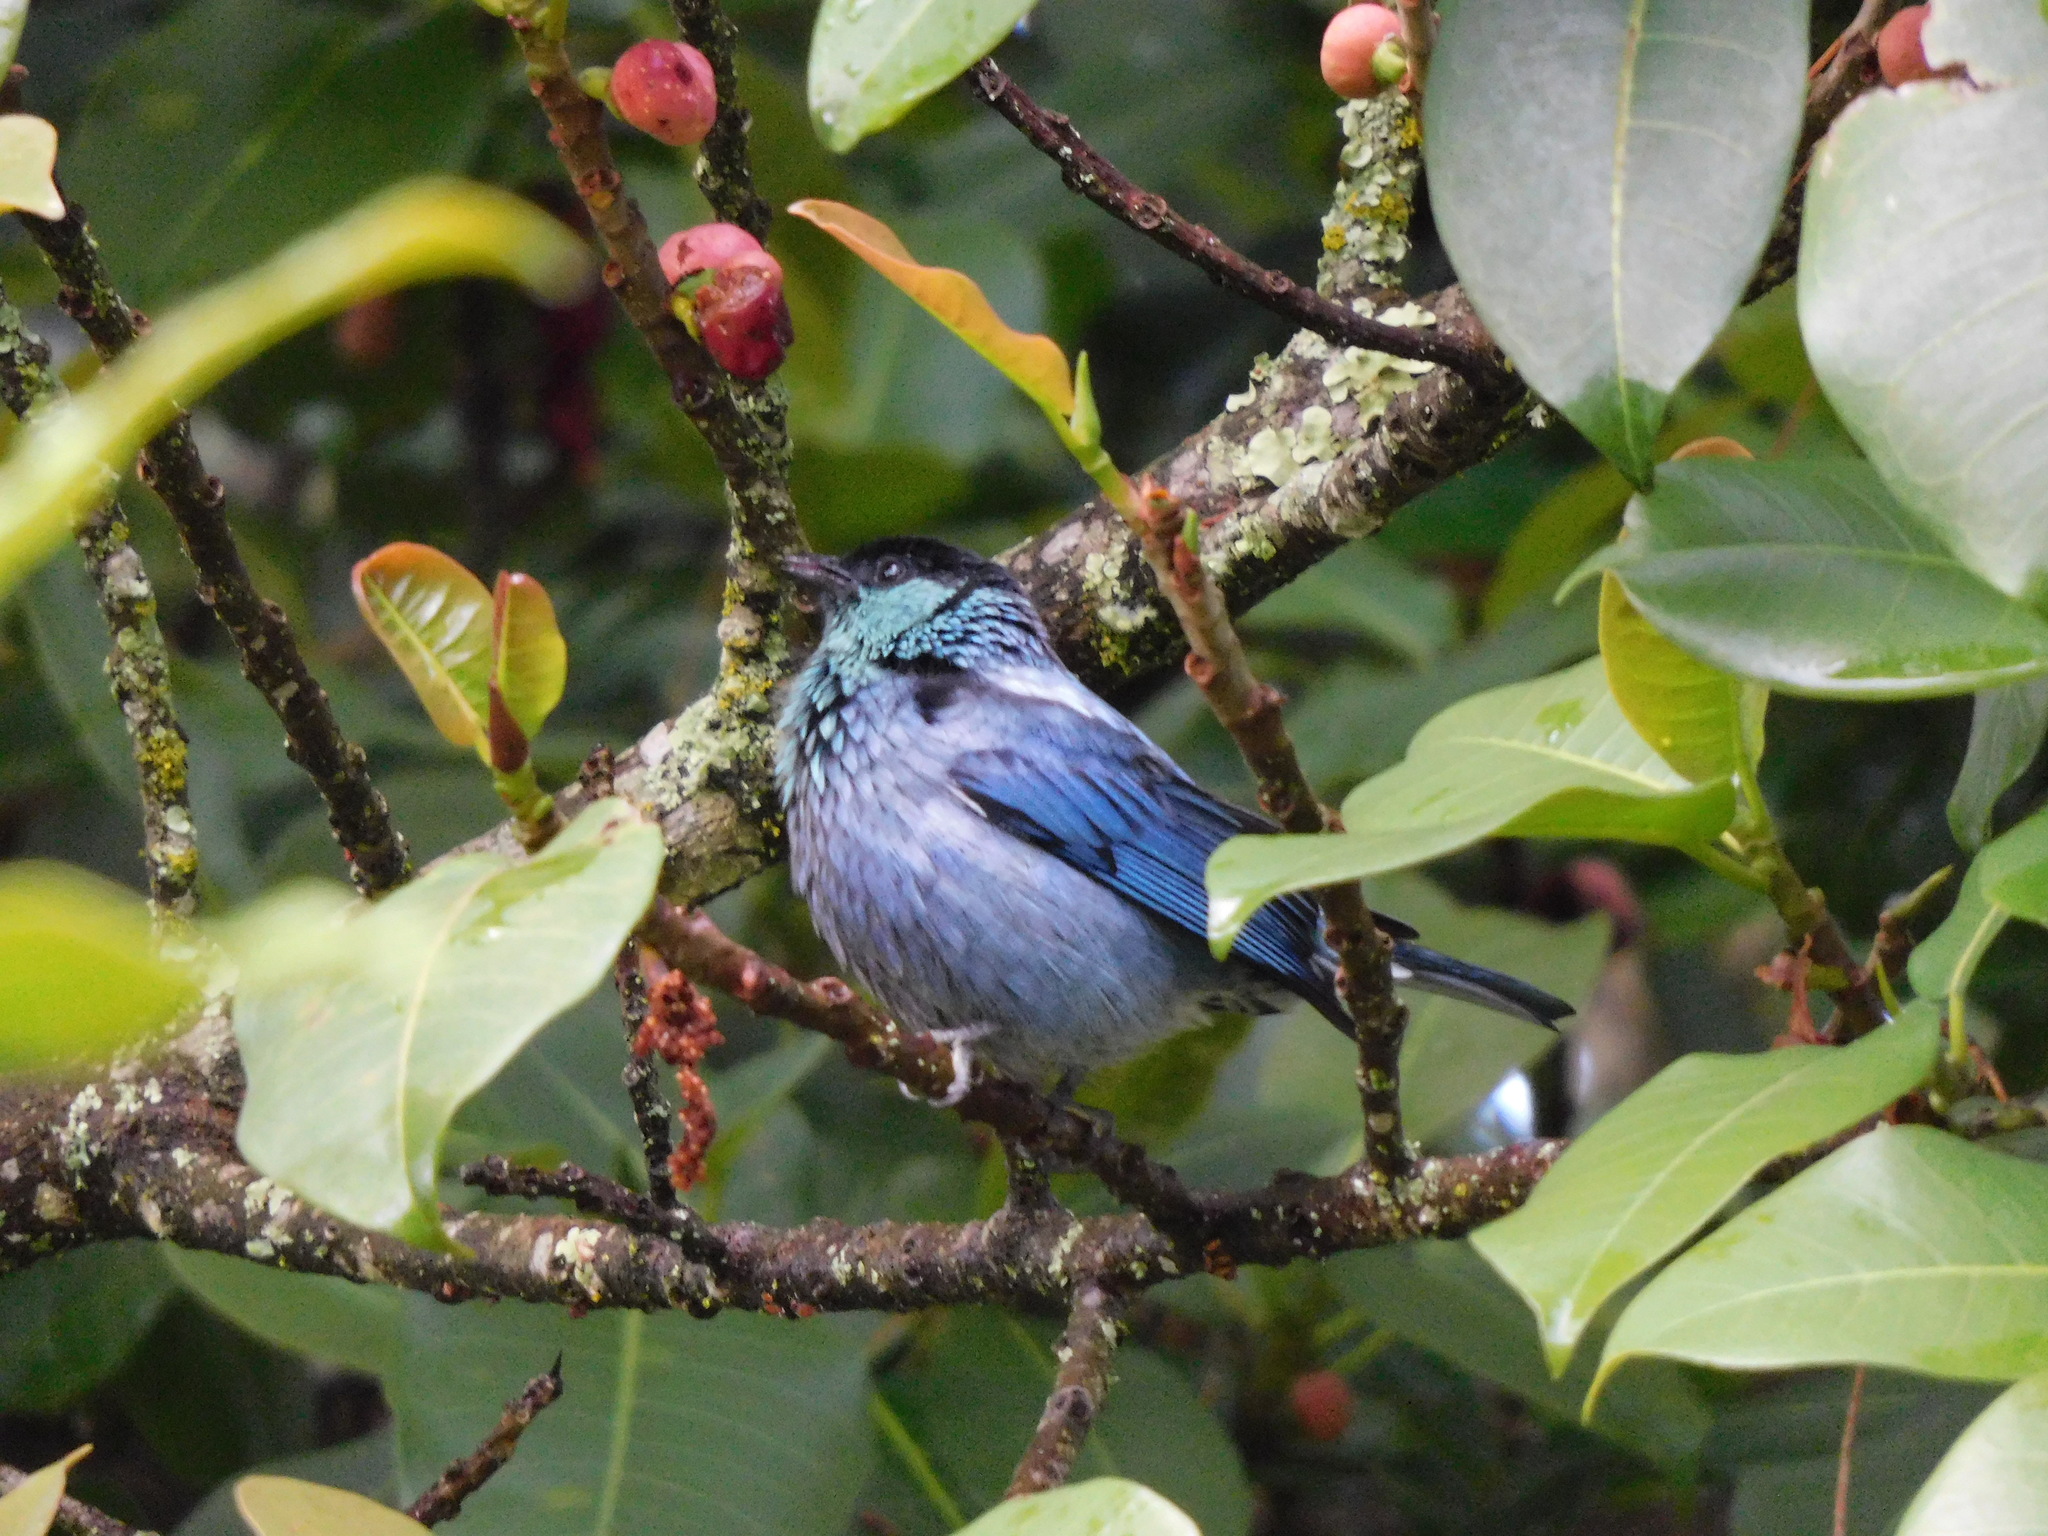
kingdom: Animalia
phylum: Chordata
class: Aves
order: Passeriformes
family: Thraupidae
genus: Stilpnia
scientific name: Stilpnia heinei
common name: Black-capped tanager
